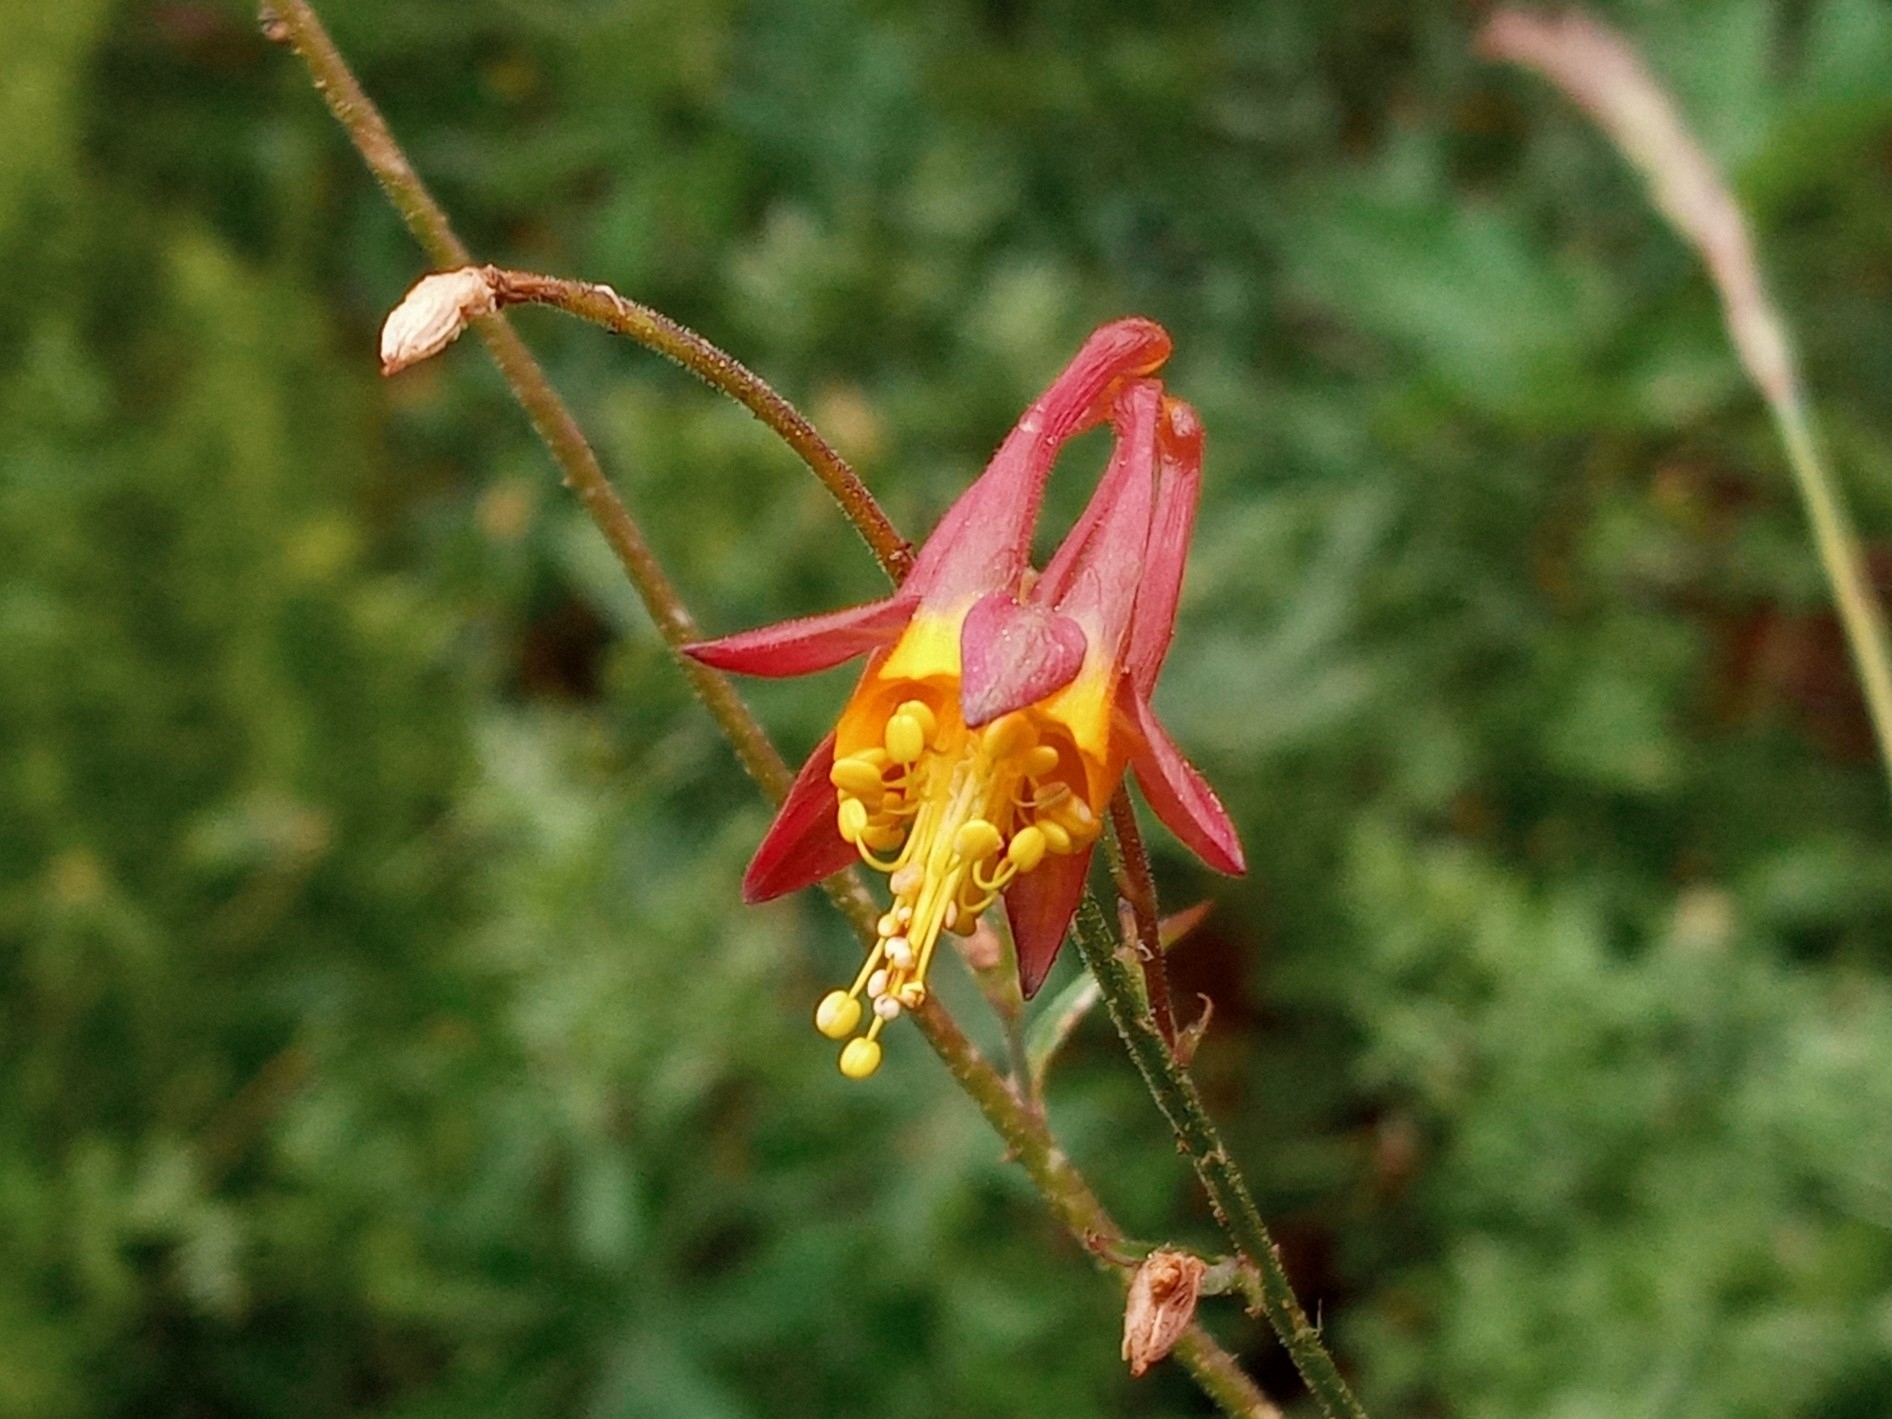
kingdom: Plantae
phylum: Tracheophyta
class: Magnoliopsida
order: Ranunculales
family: Ranunculaceae
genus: Aquilegia
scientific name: Aquilegia formosa
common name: Sitka columbine
